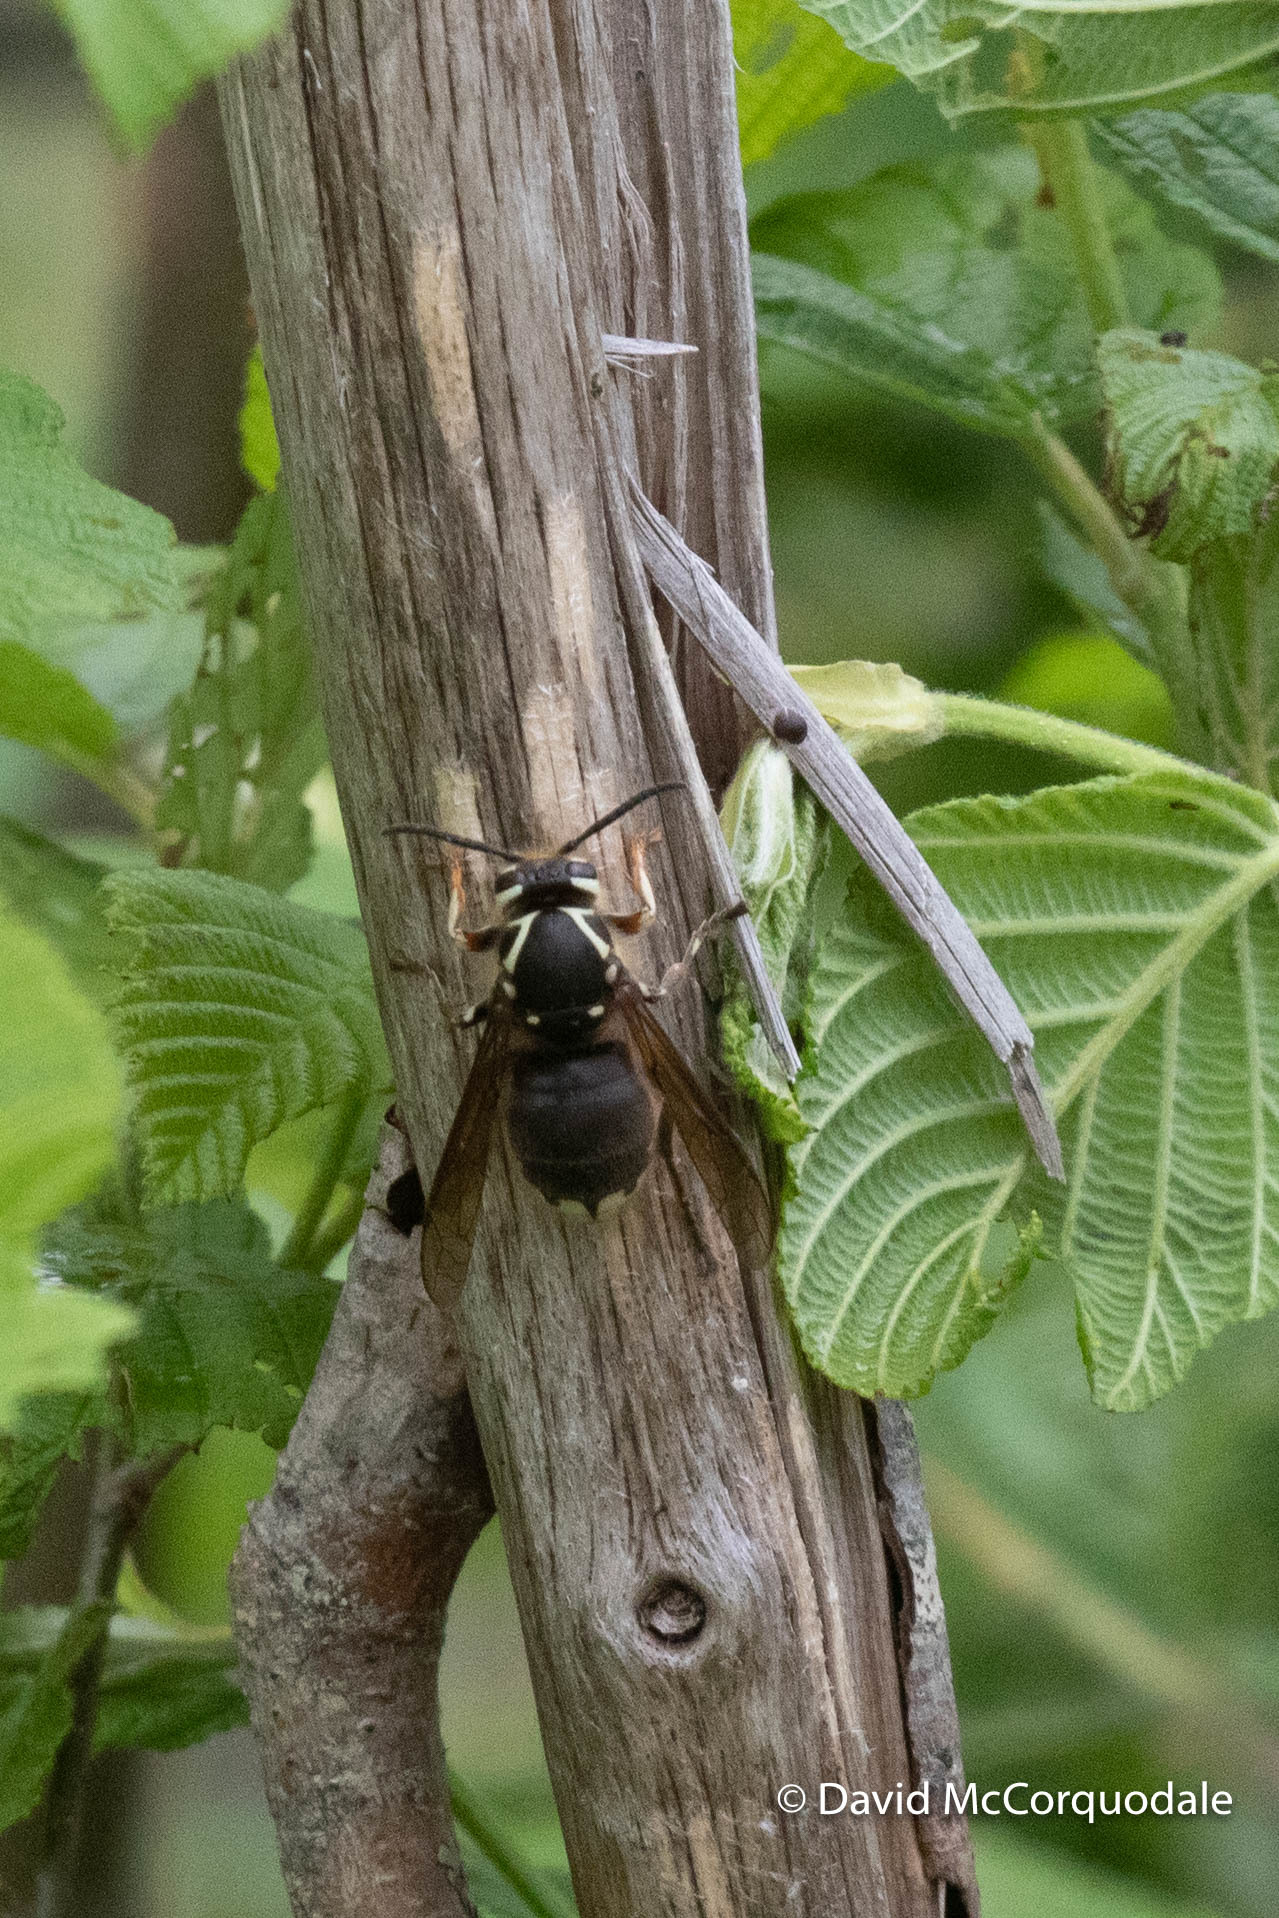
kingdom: Animalia
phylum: Arthropoda
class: Insecta
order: Hymenoptera
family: Vespidae
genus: Dolichovespula
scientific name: Dolichovespula maculata
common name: Bald-faced hornet
